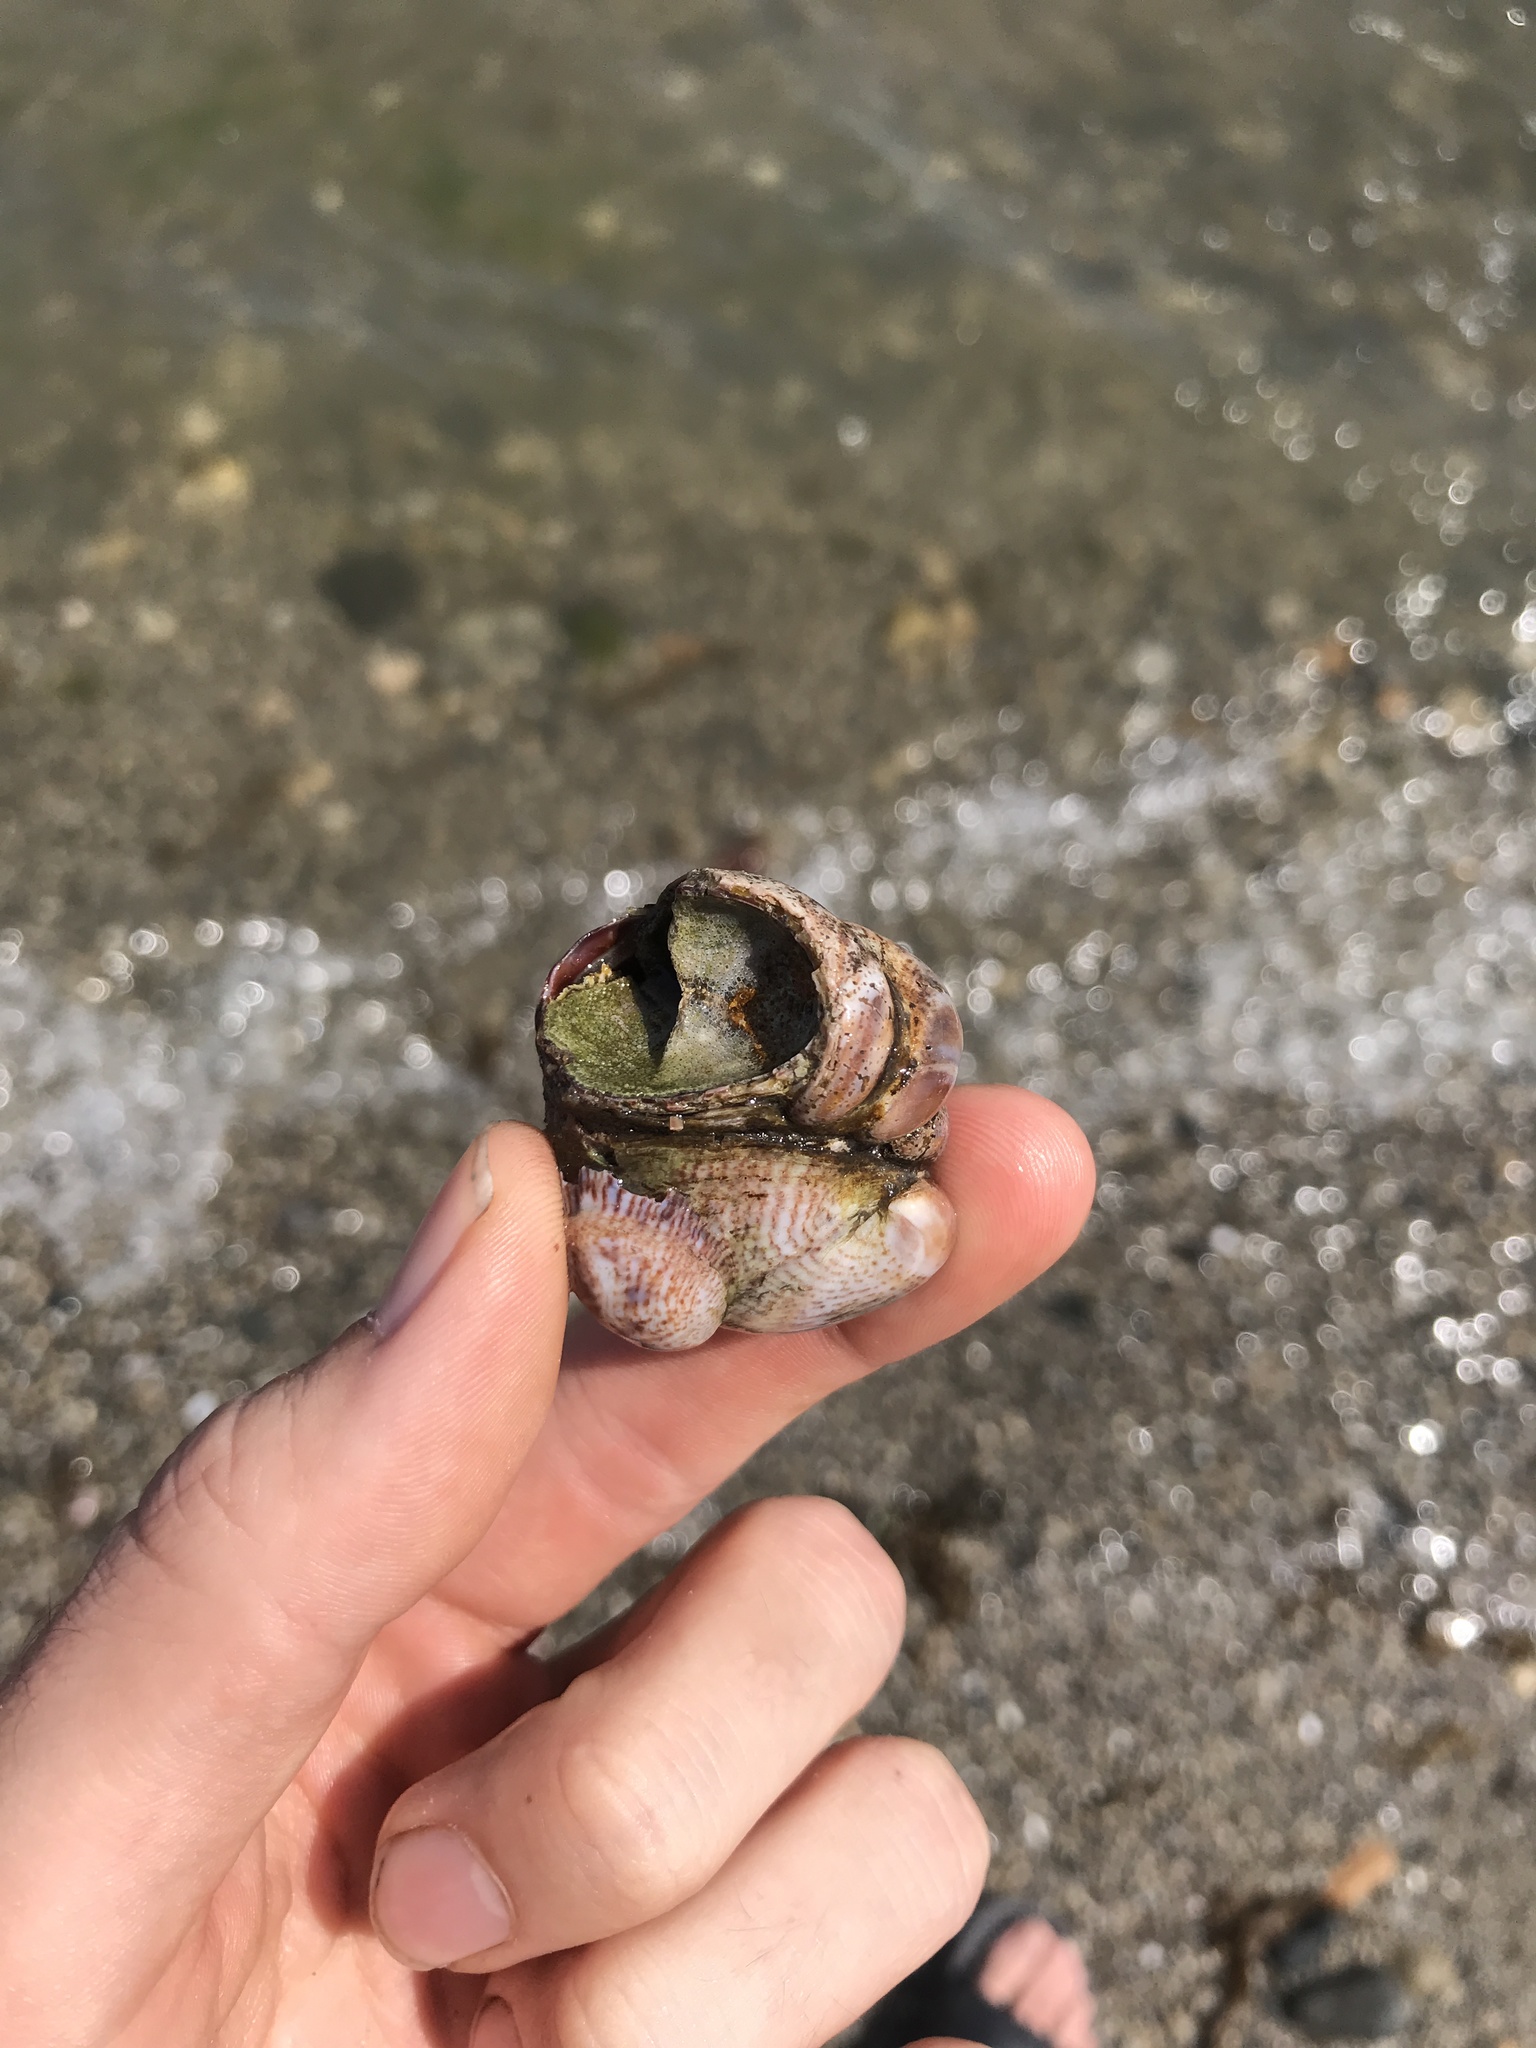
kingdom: Animalia
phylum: Mollusca
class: Gastropoda
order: Littorinimorpha
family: Calyptraeidae
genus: Crepidula
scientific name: Crepidula fornicata
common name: Slipper limpet
